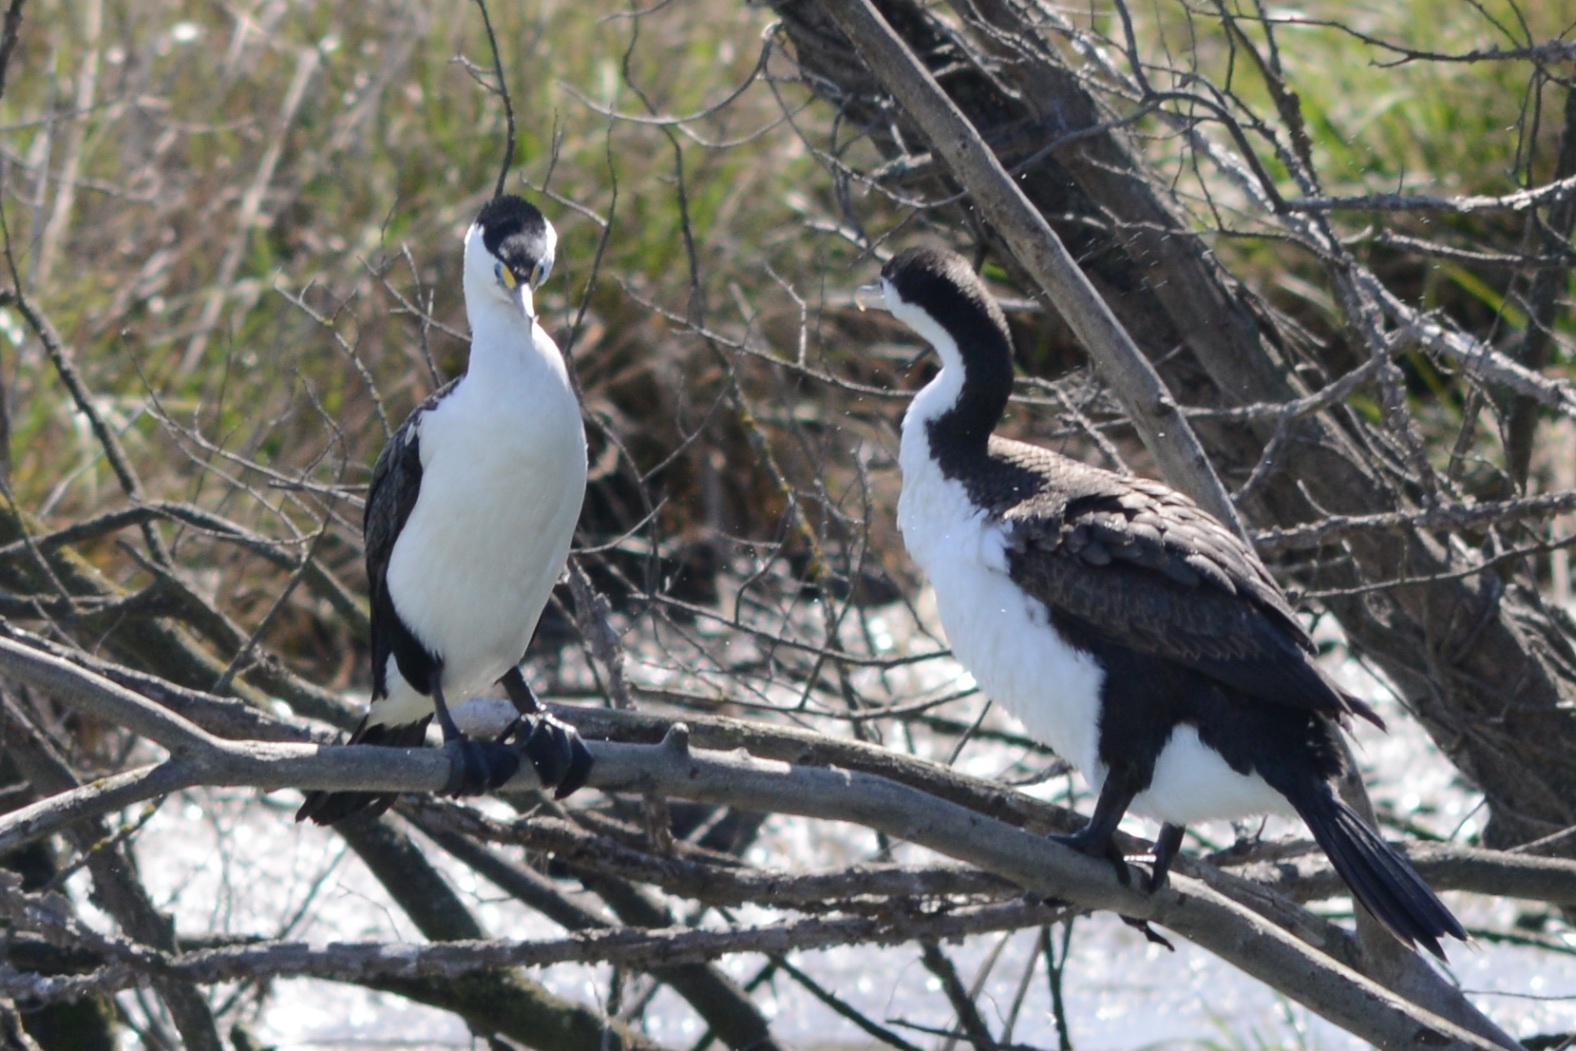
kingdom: Animalia
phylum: Chordata
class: Aves
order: Suliformes
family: Phalacrocoracidae
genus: Phalacrocorax
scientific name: Phalacrocorax varius
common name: Pied cormorant
